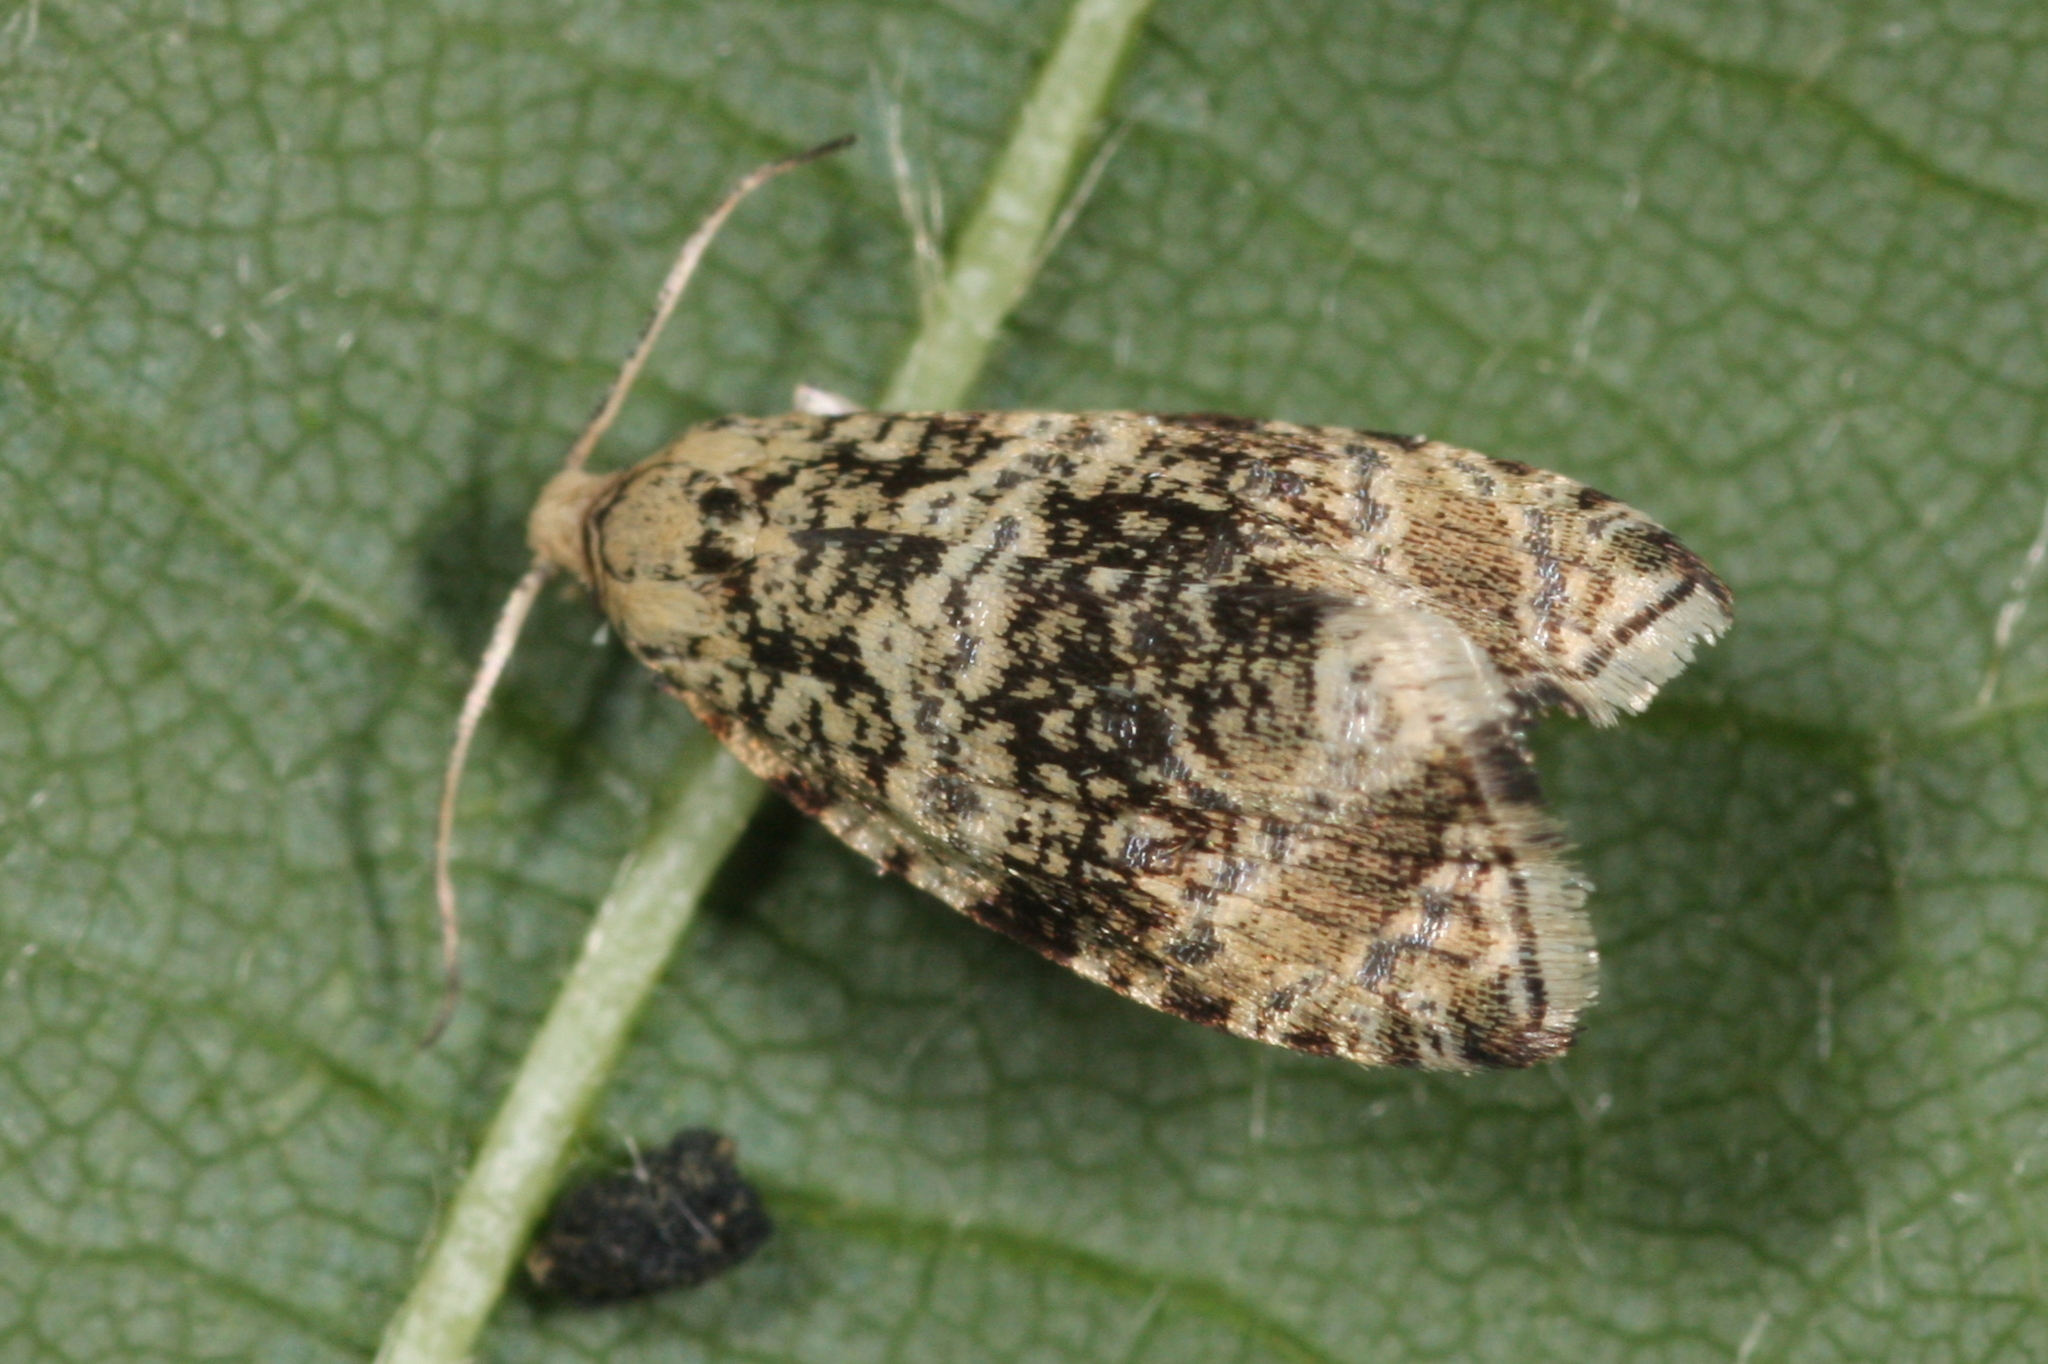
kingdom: Animalia
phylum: Arthropoda
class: Insecta
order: Lepidoptera
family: Tortricidae
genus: Syricoris
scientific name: Syricoris lacunana
